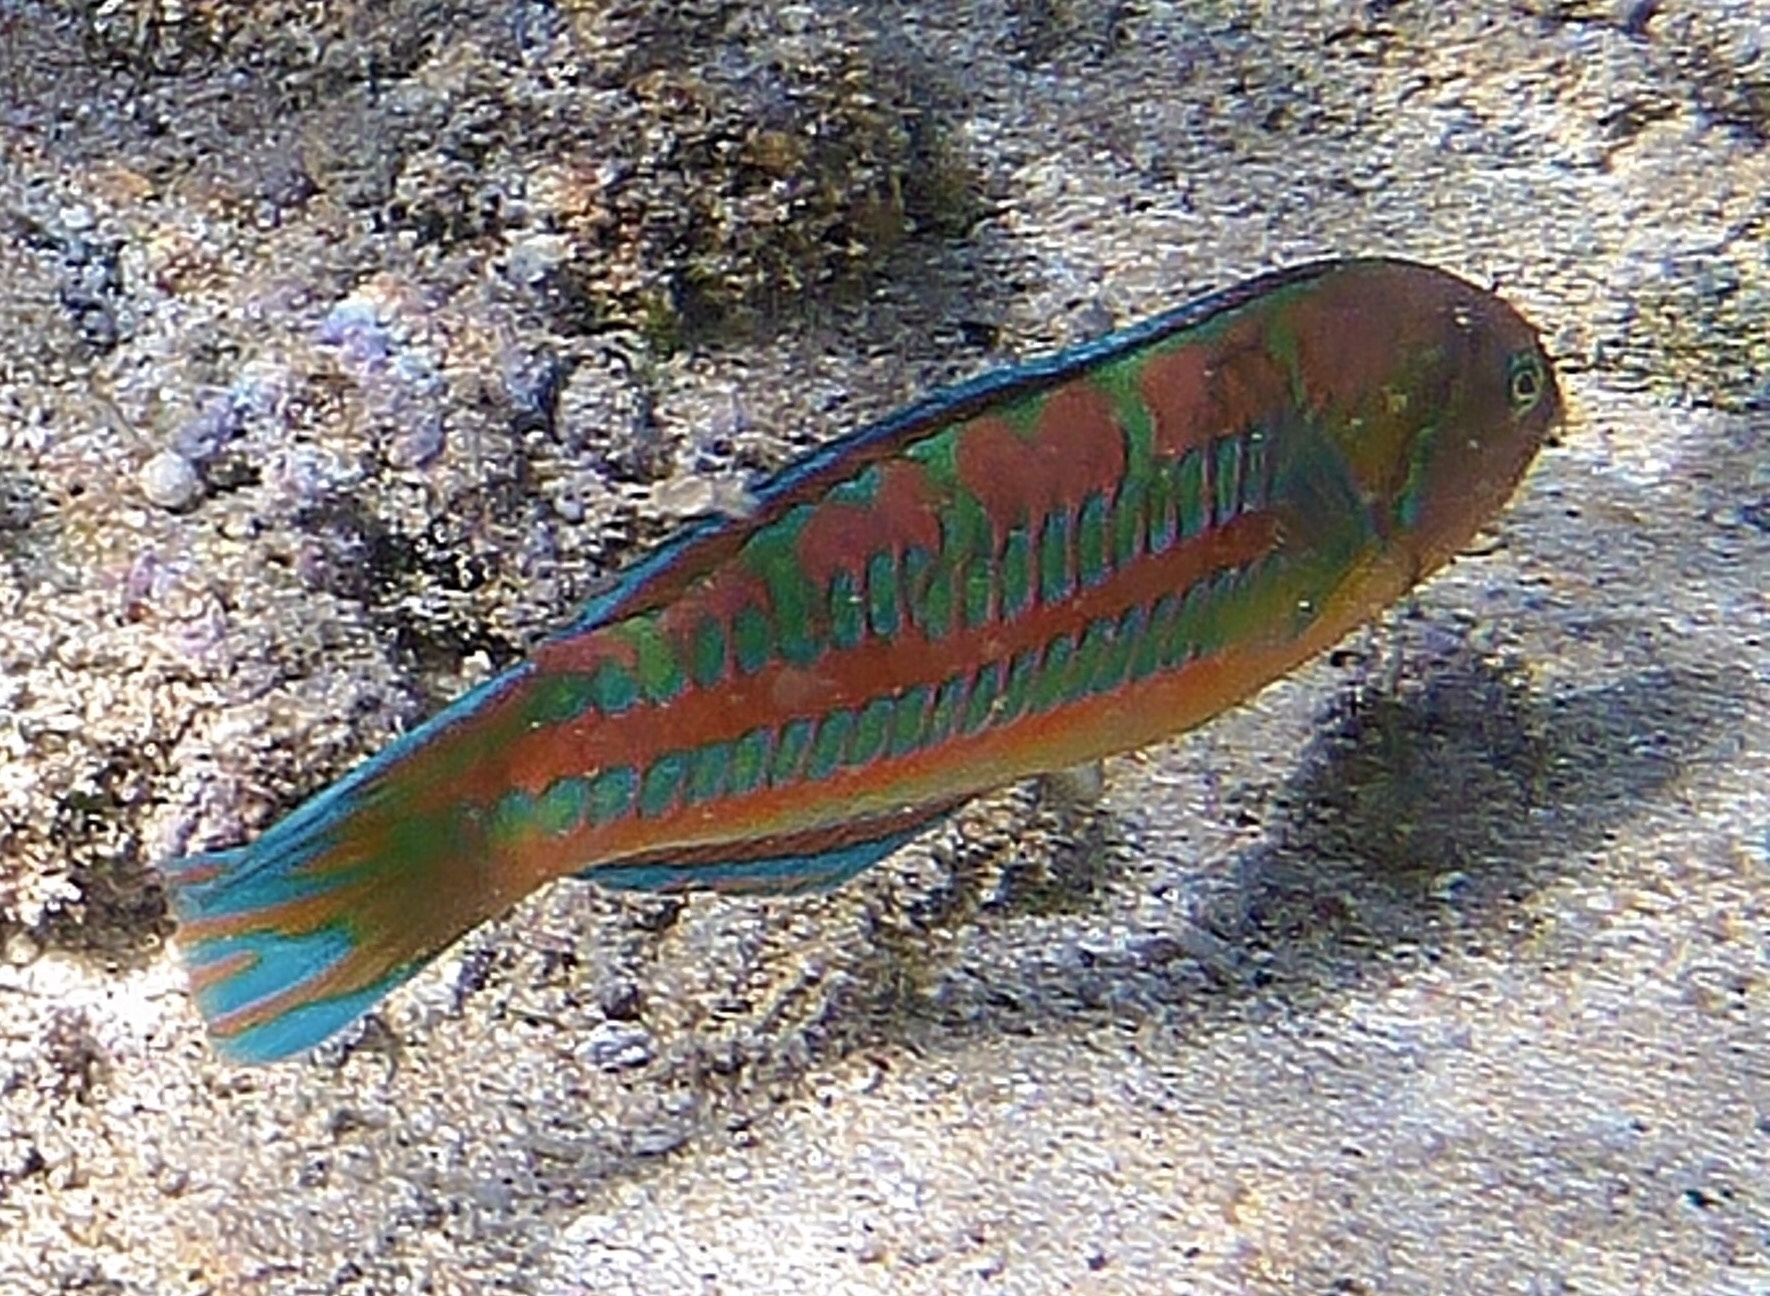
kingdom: Animalia
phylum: Chordata
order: Perciformes
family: Labridae
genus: Thalassoma
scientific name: Thalassoma trilobatum
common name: Christmas wrasse
